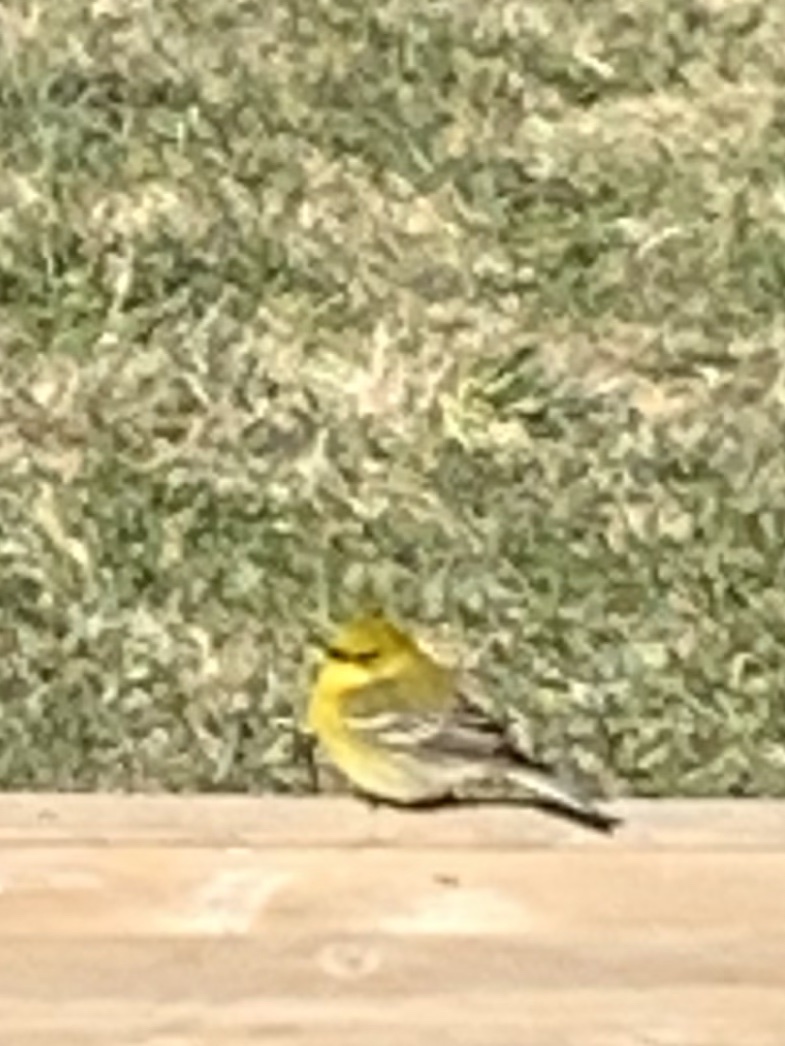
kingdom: Animalia
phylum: Chordata
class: Aves
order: Passeriformes
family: Parulidae
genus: Setophaga
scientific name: Setophaga pinus
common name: Pine warbler
